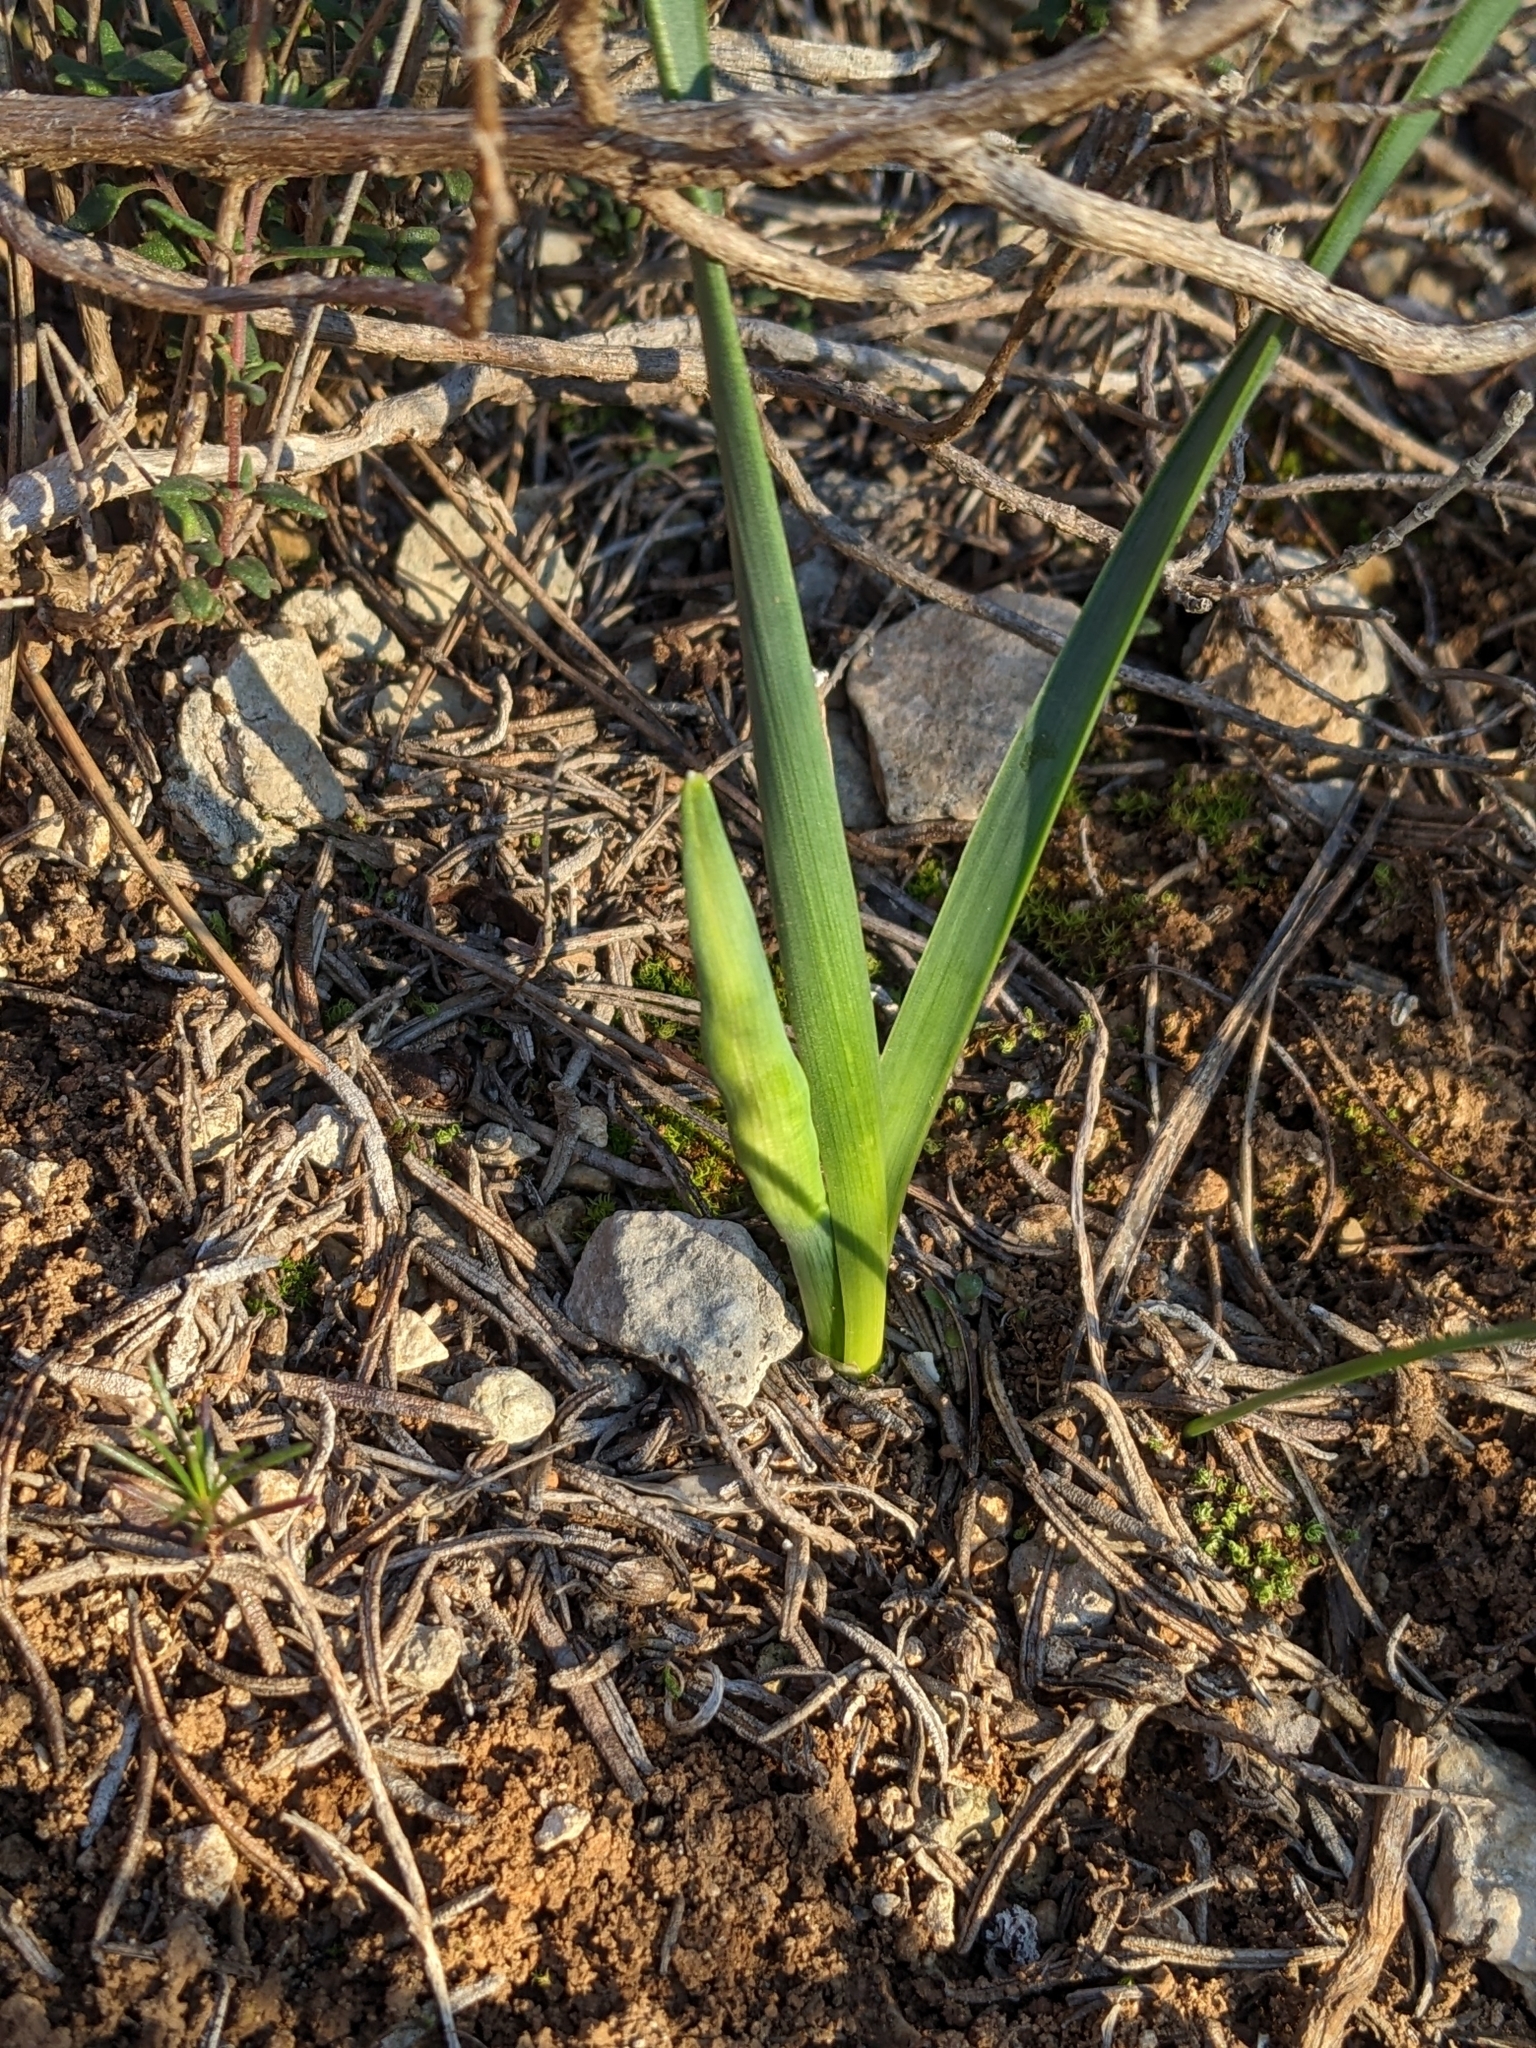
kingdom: Plantae
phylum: Tracheophyta
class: Liliopsida
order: Asparagales
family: Amaryllidaceae
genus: Narcissus
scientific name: Narcissus dubius
